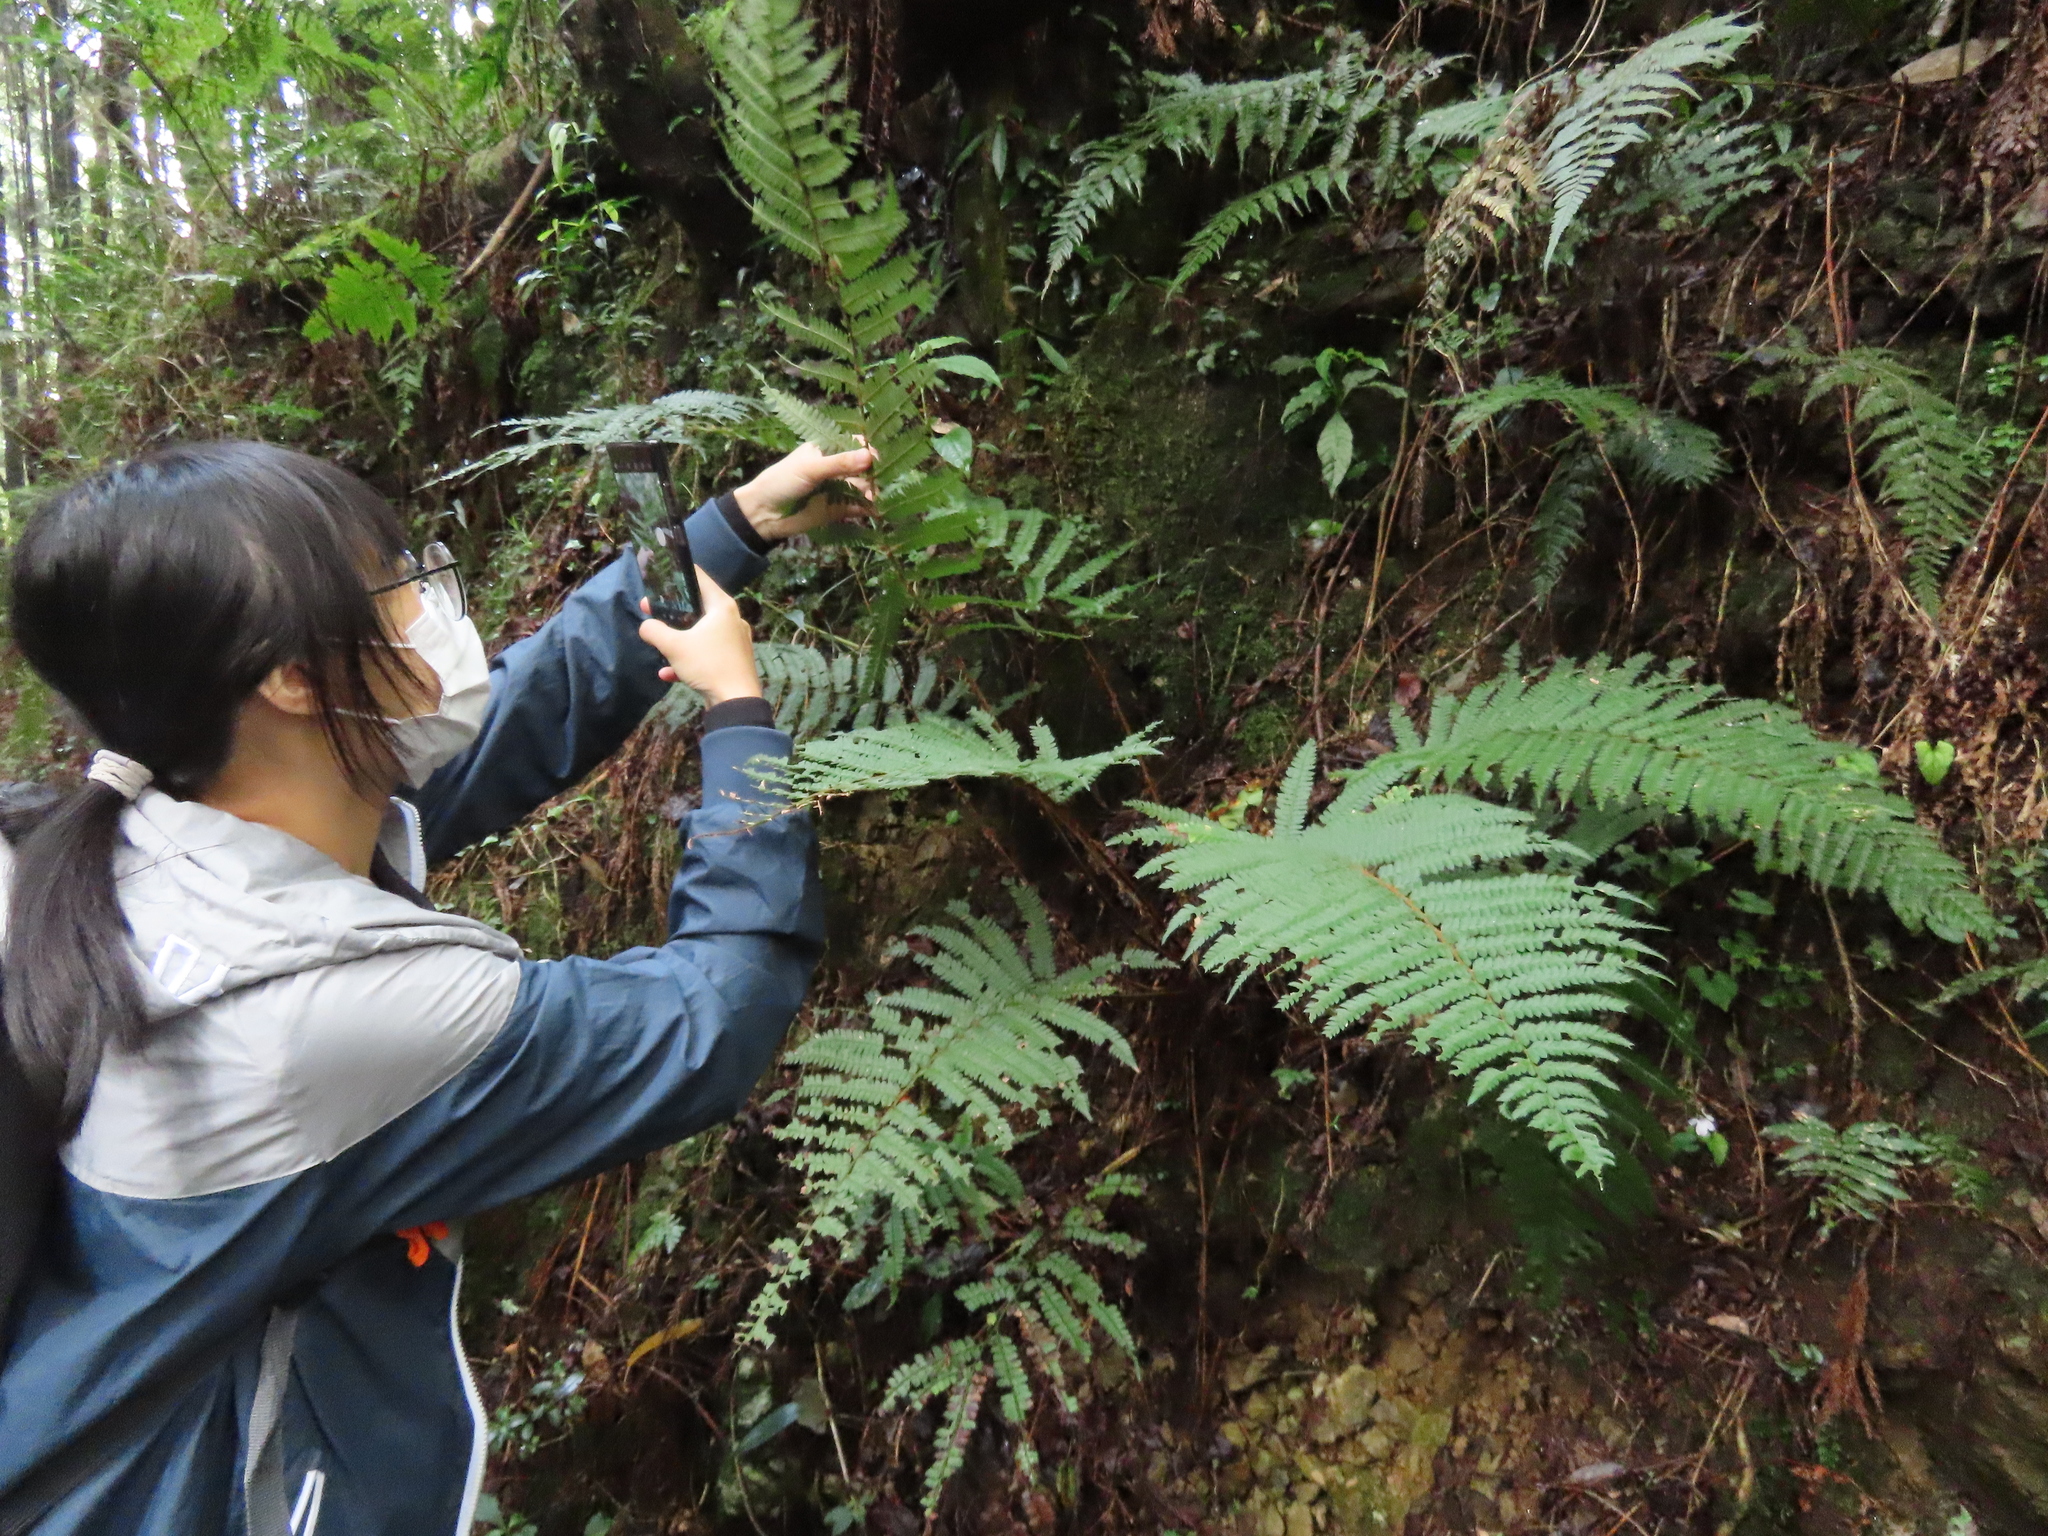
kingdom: Plantae
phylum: Tracheophyta
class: Polypodiopsida
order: Polypodiales
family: Dryopteridaceae
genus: Polystichum
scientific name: Polystichum mucronifolium
